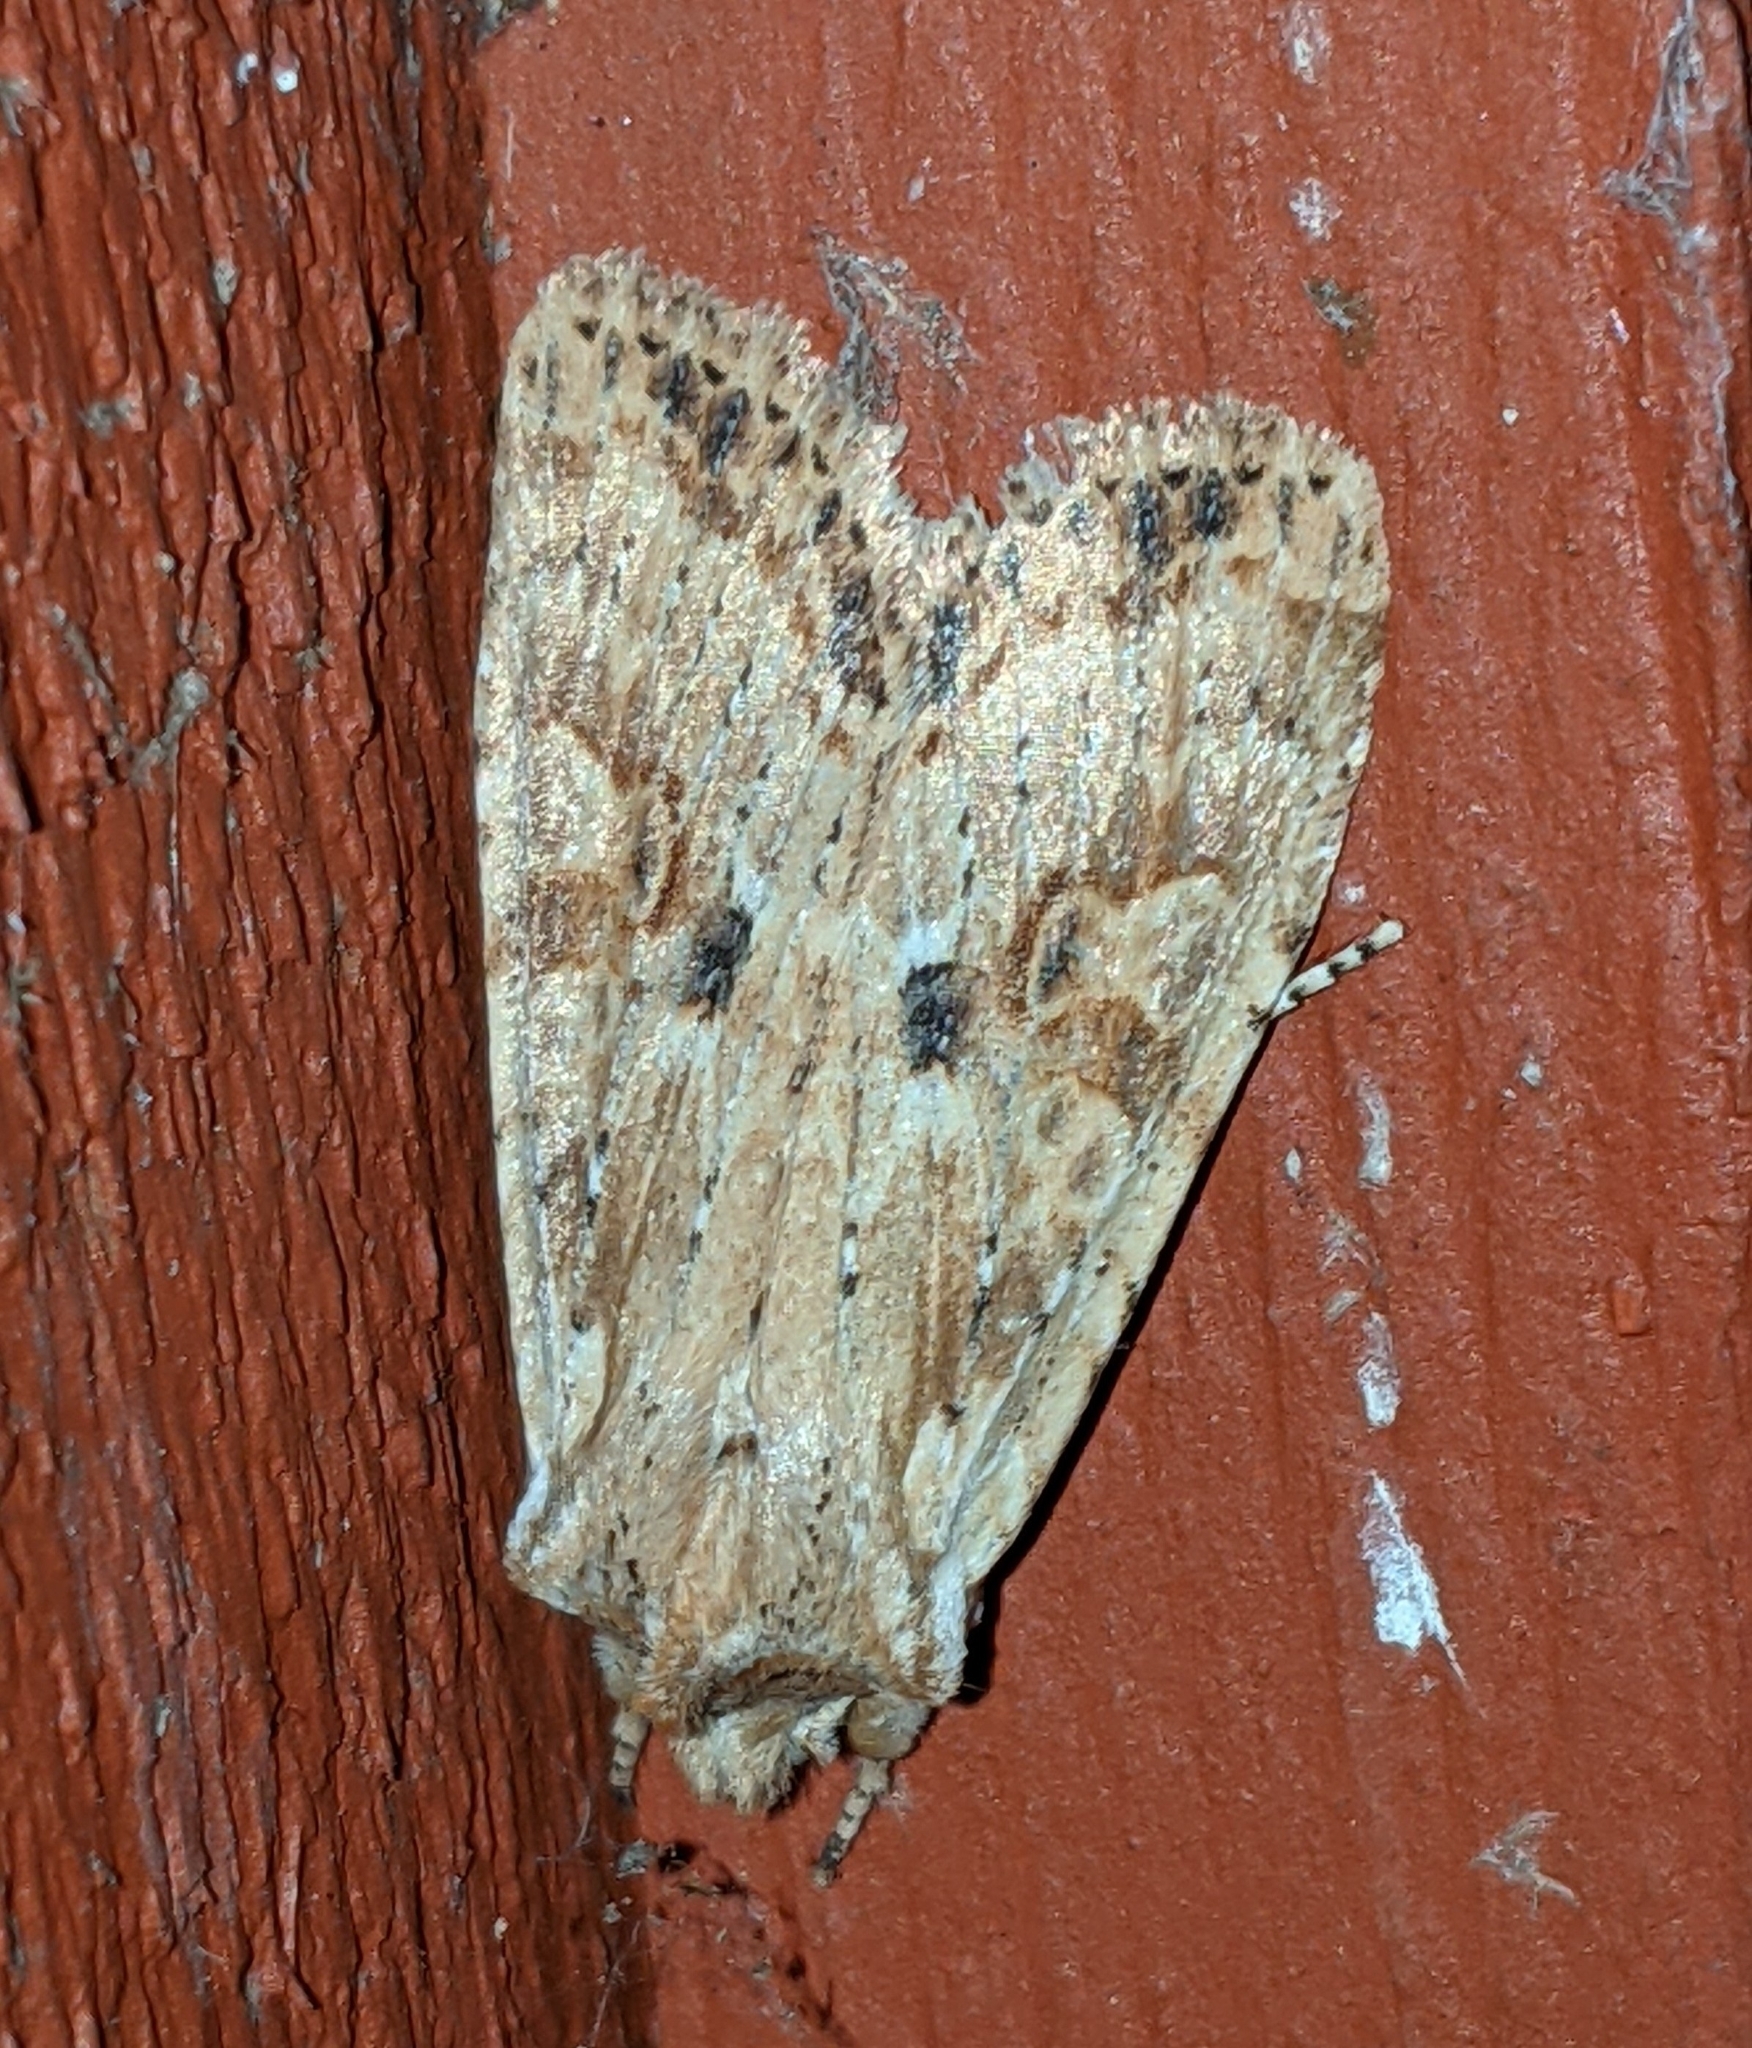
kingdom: Animalia
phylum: Arthropoda
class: Insecta
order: Lepidoptera
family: Noctuidae
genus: Lithophane
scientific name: Lithophane innominata
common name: Nameless pinion moth
